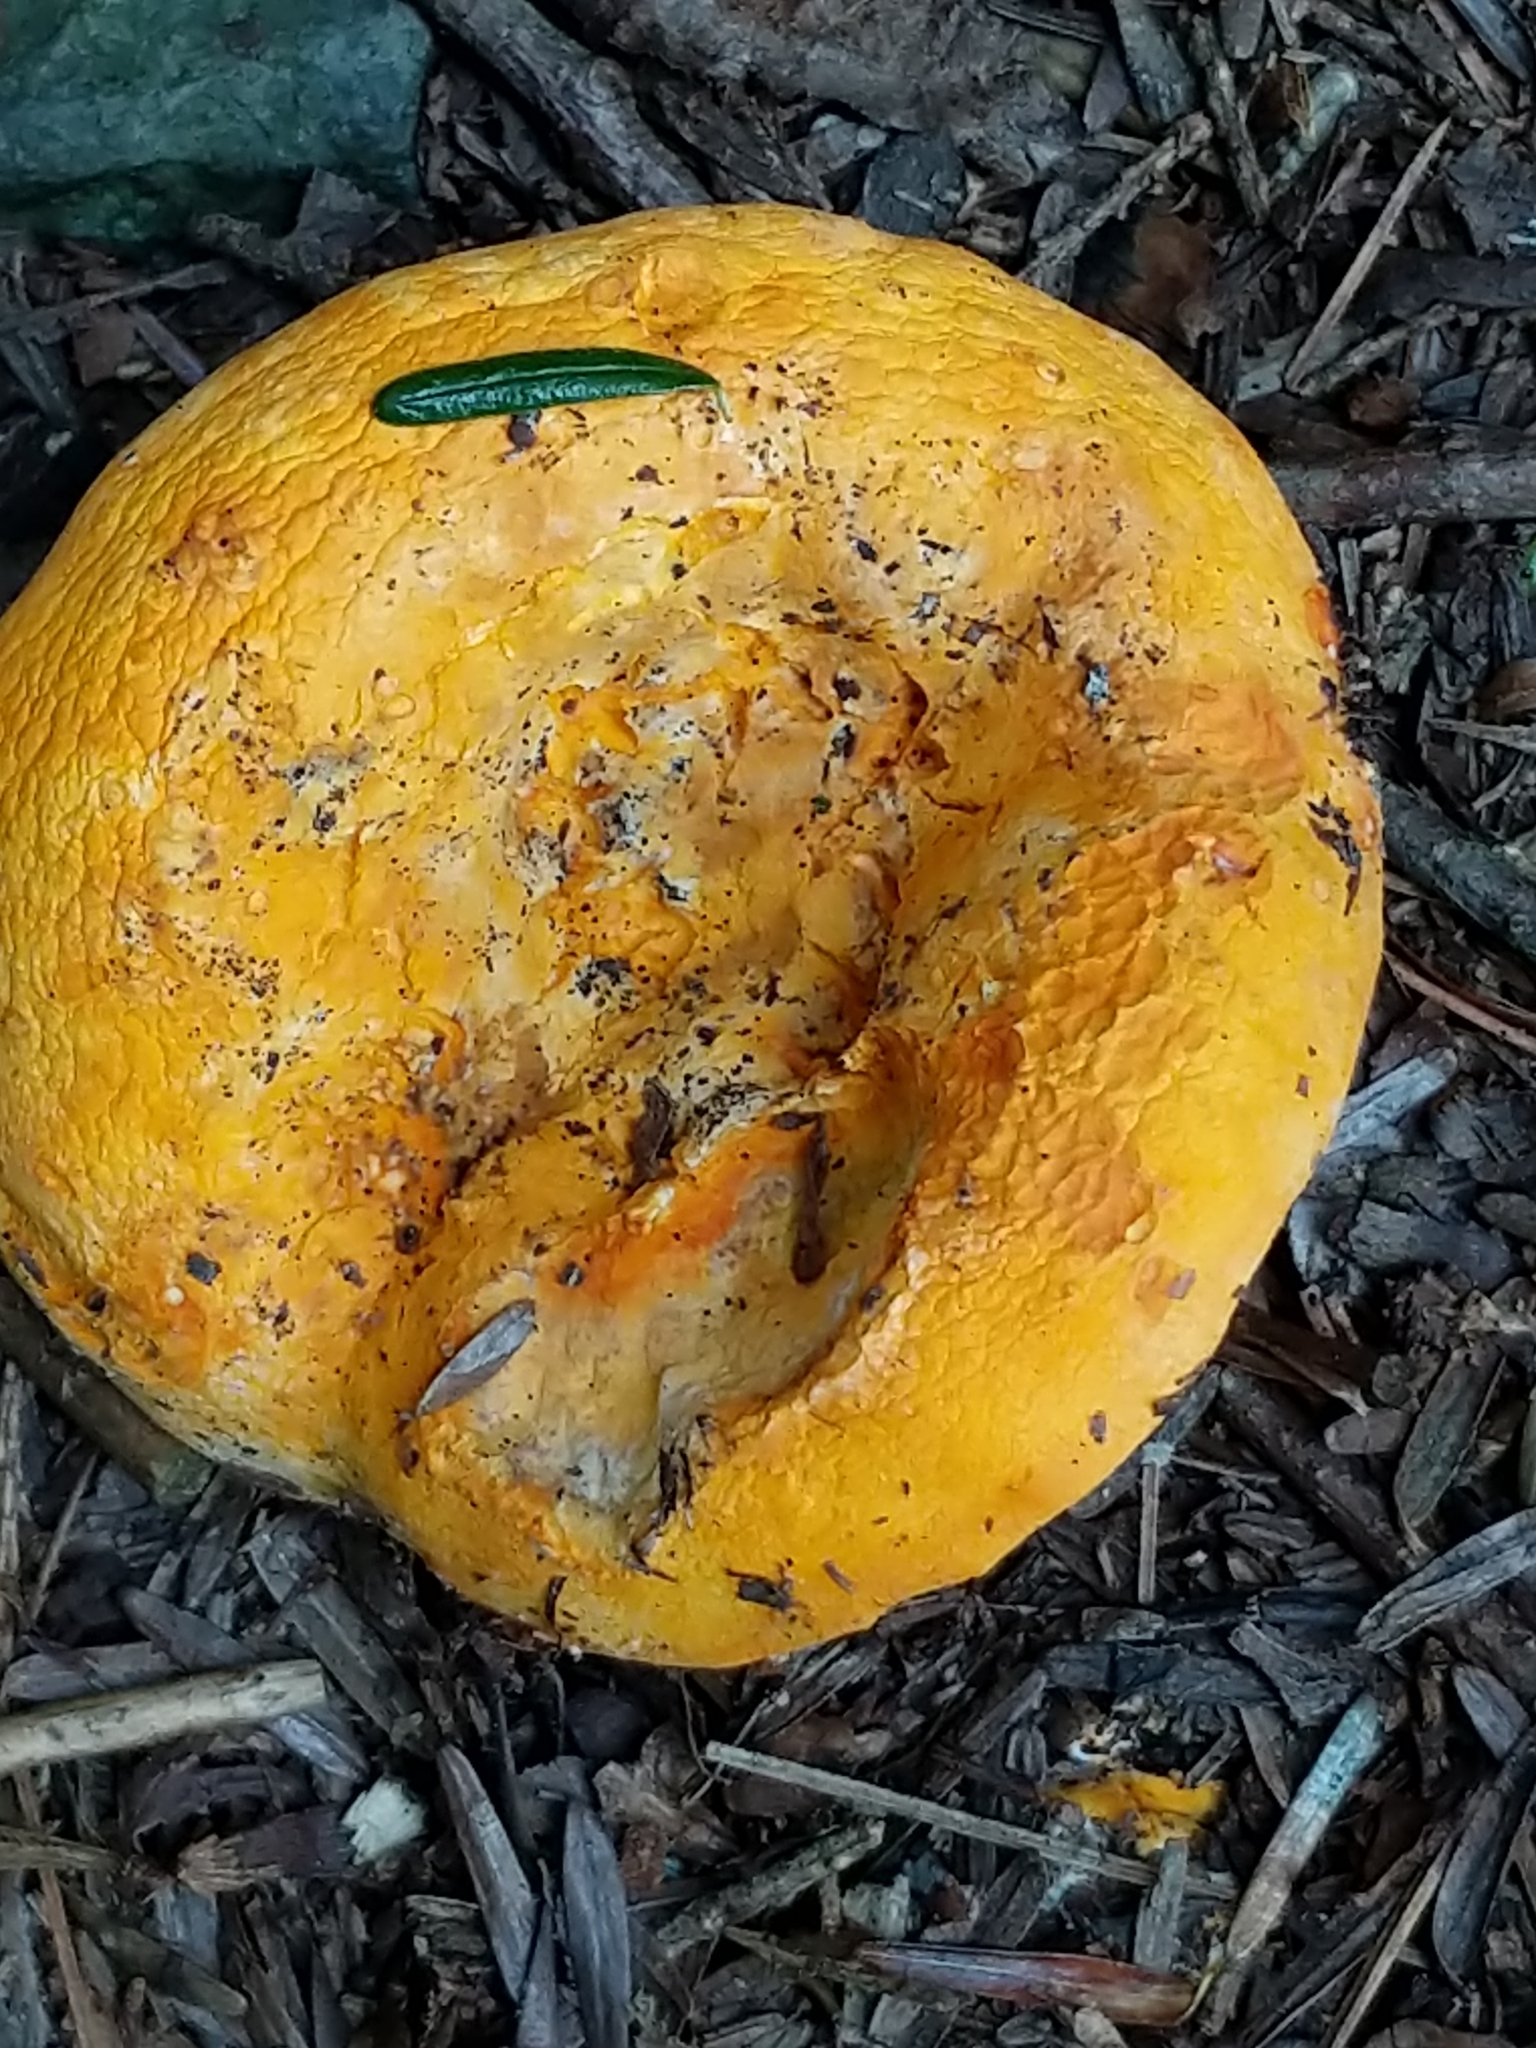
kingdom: Fungi
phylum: Ascomycota
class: Sordariomycetes
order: Hypocreales
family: Hypocreaceae
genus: Hypomyces
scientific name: Hypomyces lactifluorum
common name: Lobster mushroom
